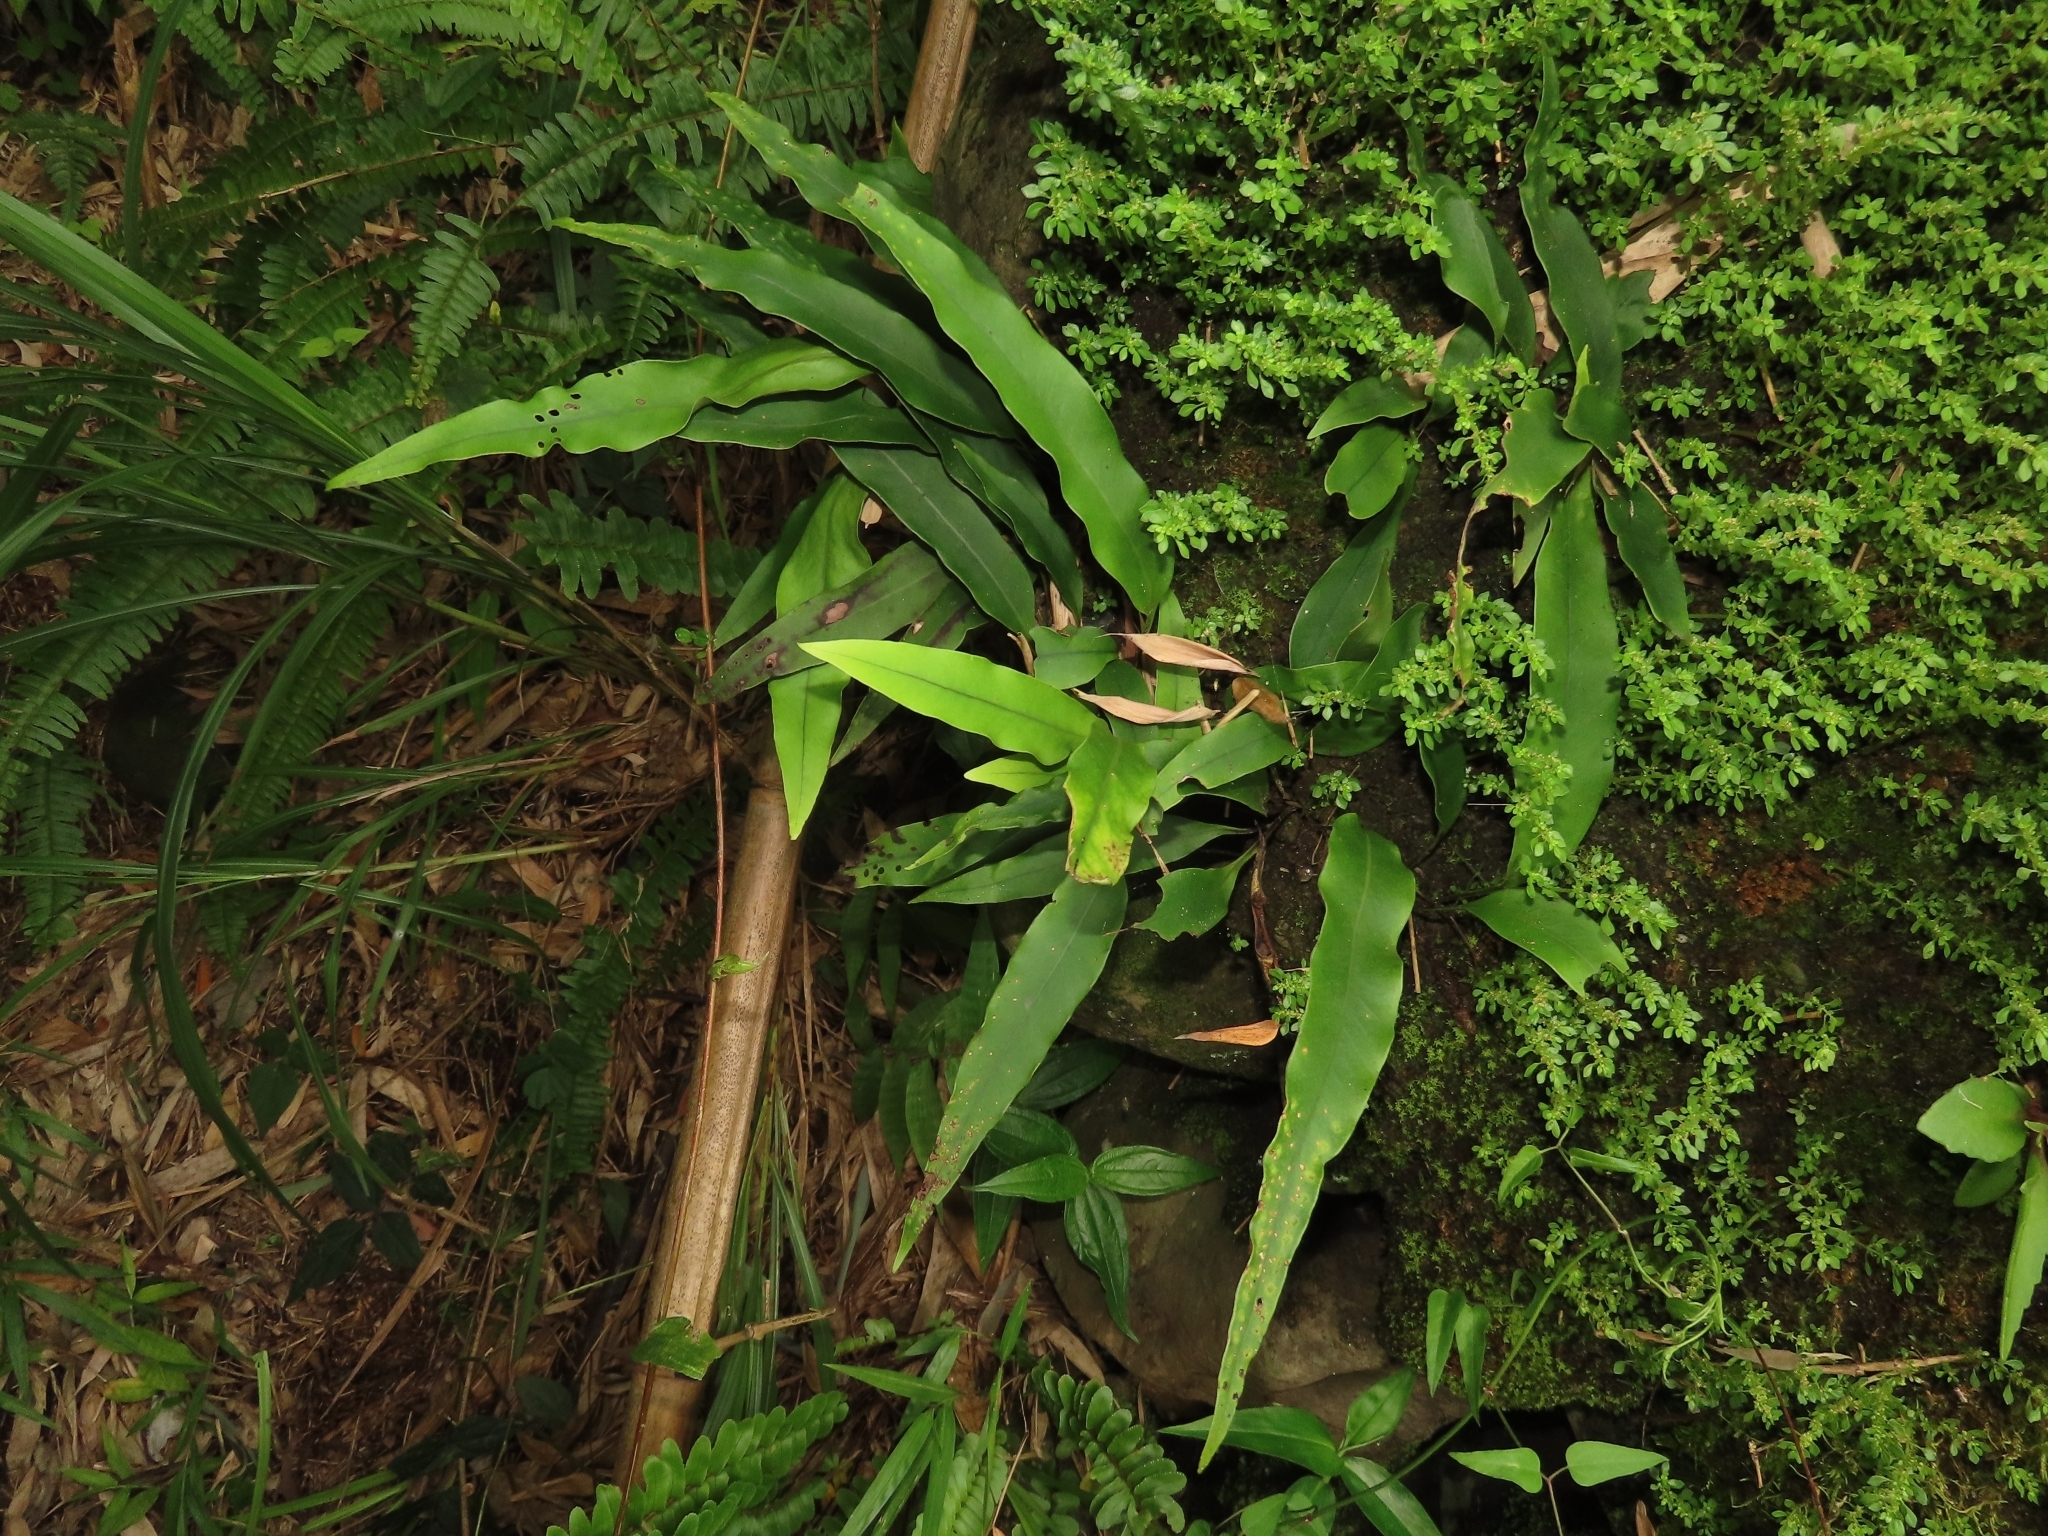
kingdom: Plantae
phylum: Tracheophyta
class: Polypodiopsida
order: Polypodiales
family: Polypodiaceae
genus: Lepisorus
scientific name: Lepisorus megasorus
